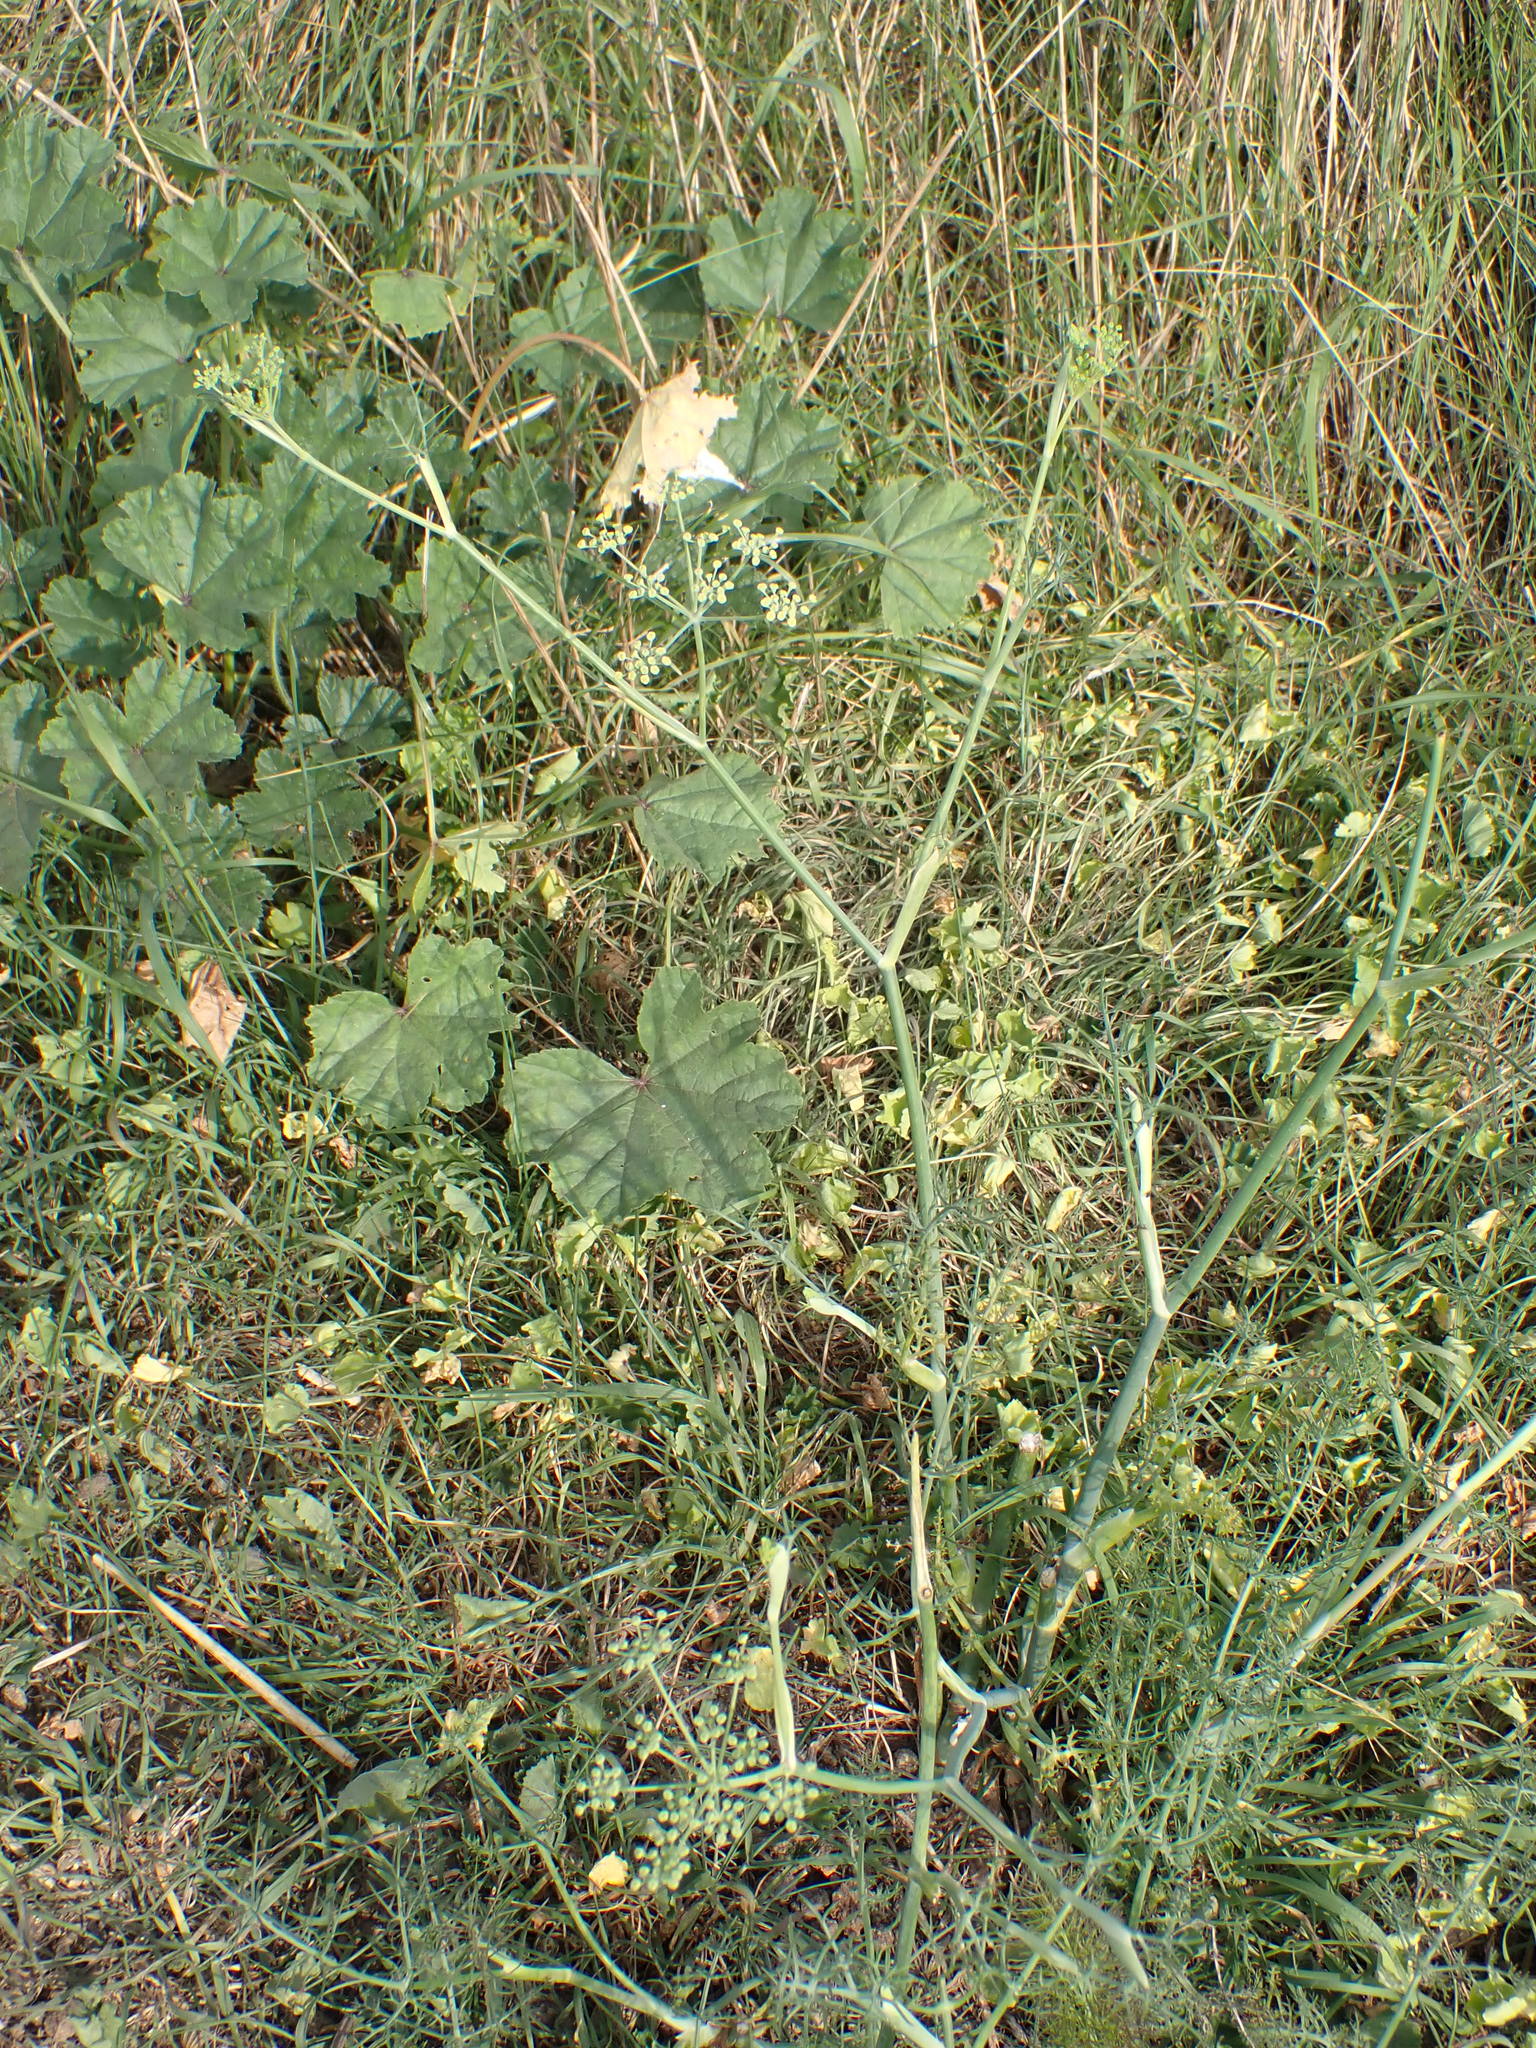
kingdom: Plantae
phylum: Tracheophyta
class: Magnoliopsida
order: Apiales
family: Apiaceae
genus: Foeniculum
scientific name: Foeniculum vulgare
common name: Fennel
